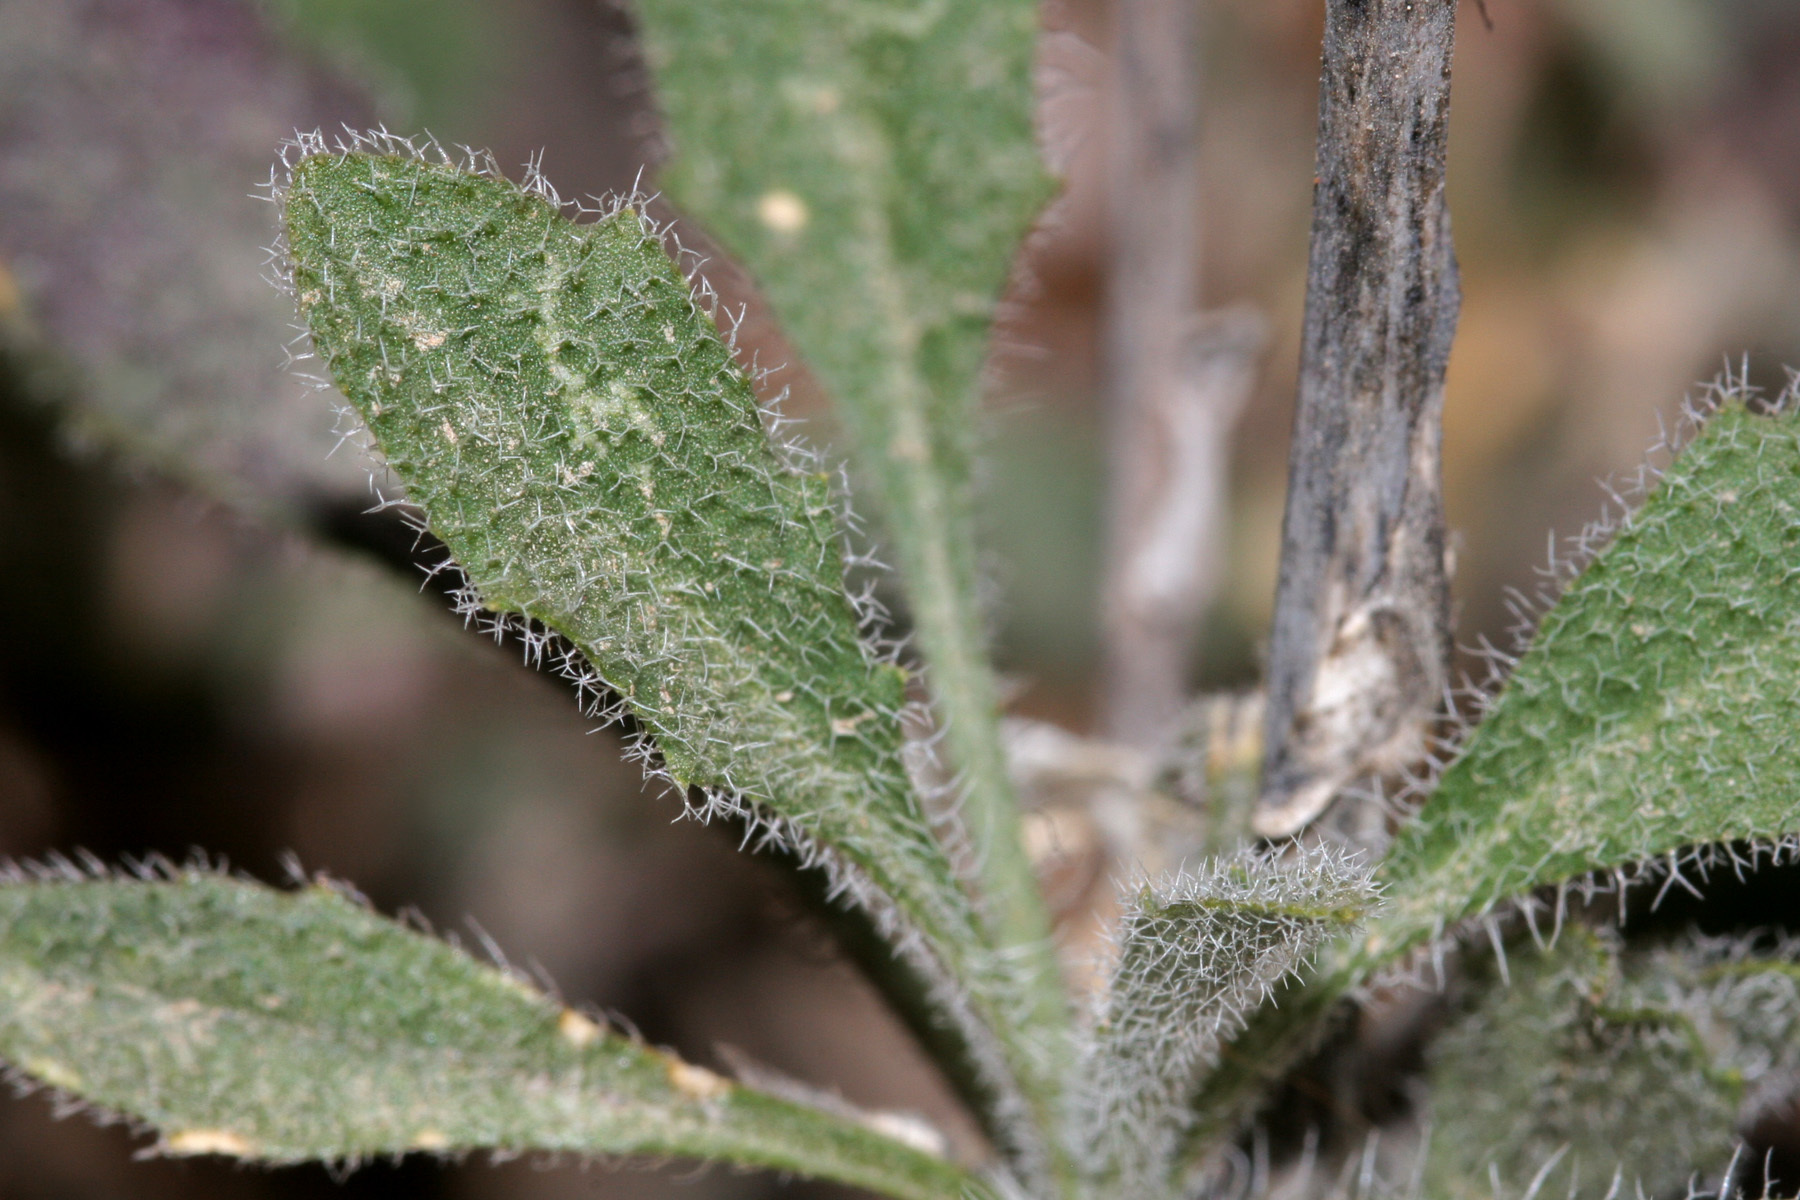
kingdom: Plantae
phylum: Tracheophyta
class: Magnoliopsida
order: Brassicales
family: Brassicaceae
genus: Boechera
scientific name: Boechera texana
